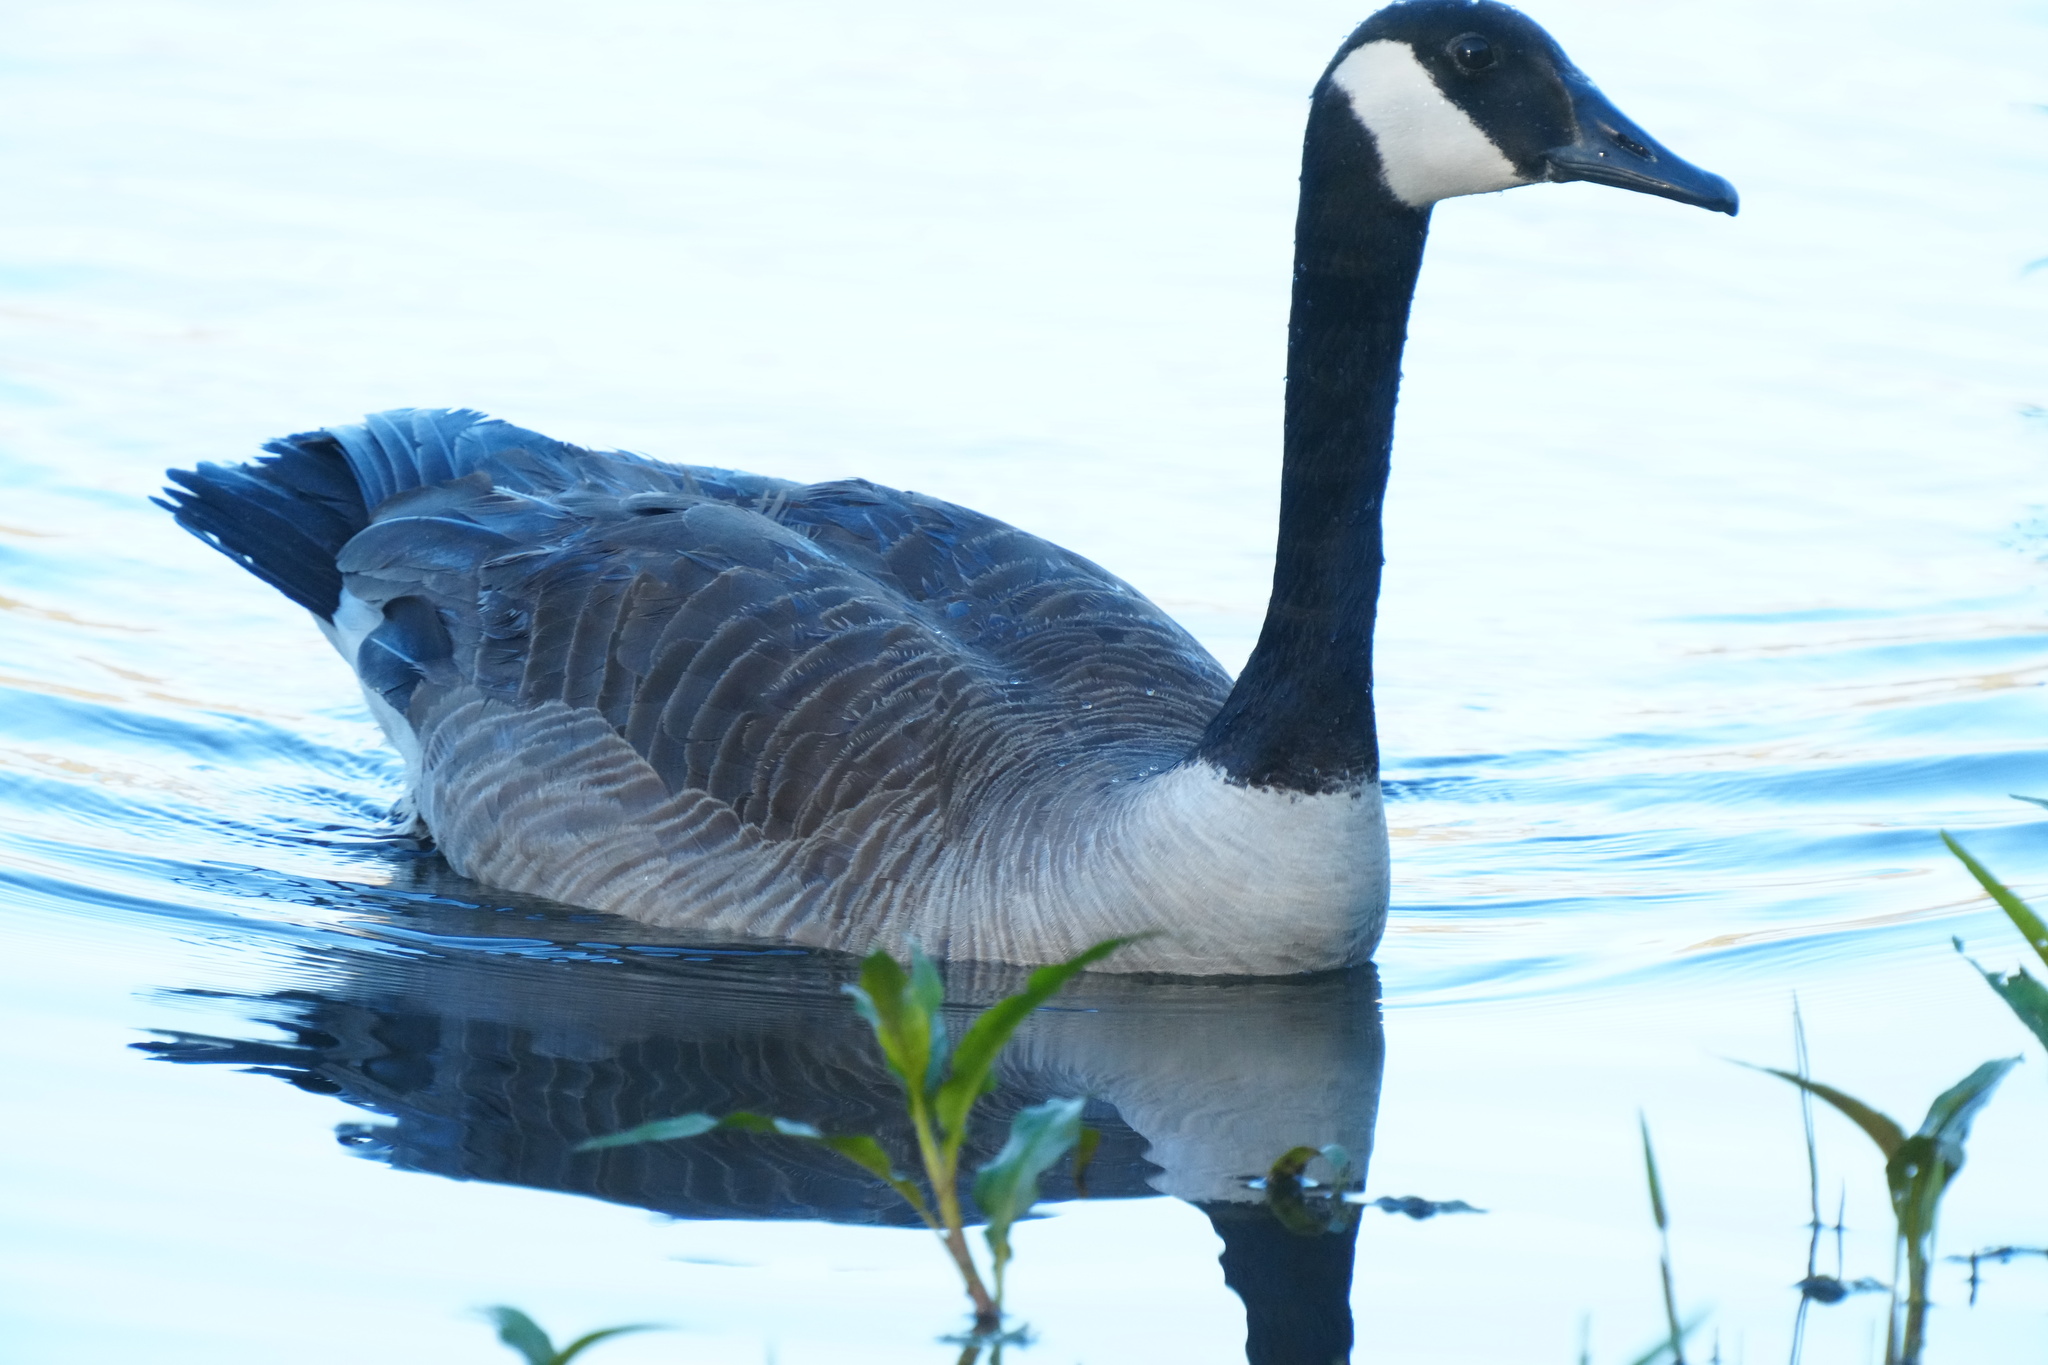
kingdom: Animalia
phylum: Chordata
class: Aves
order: Anseriformes
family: Anatidae
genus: Branta
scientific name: Branta canadensis
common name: Canada goose
